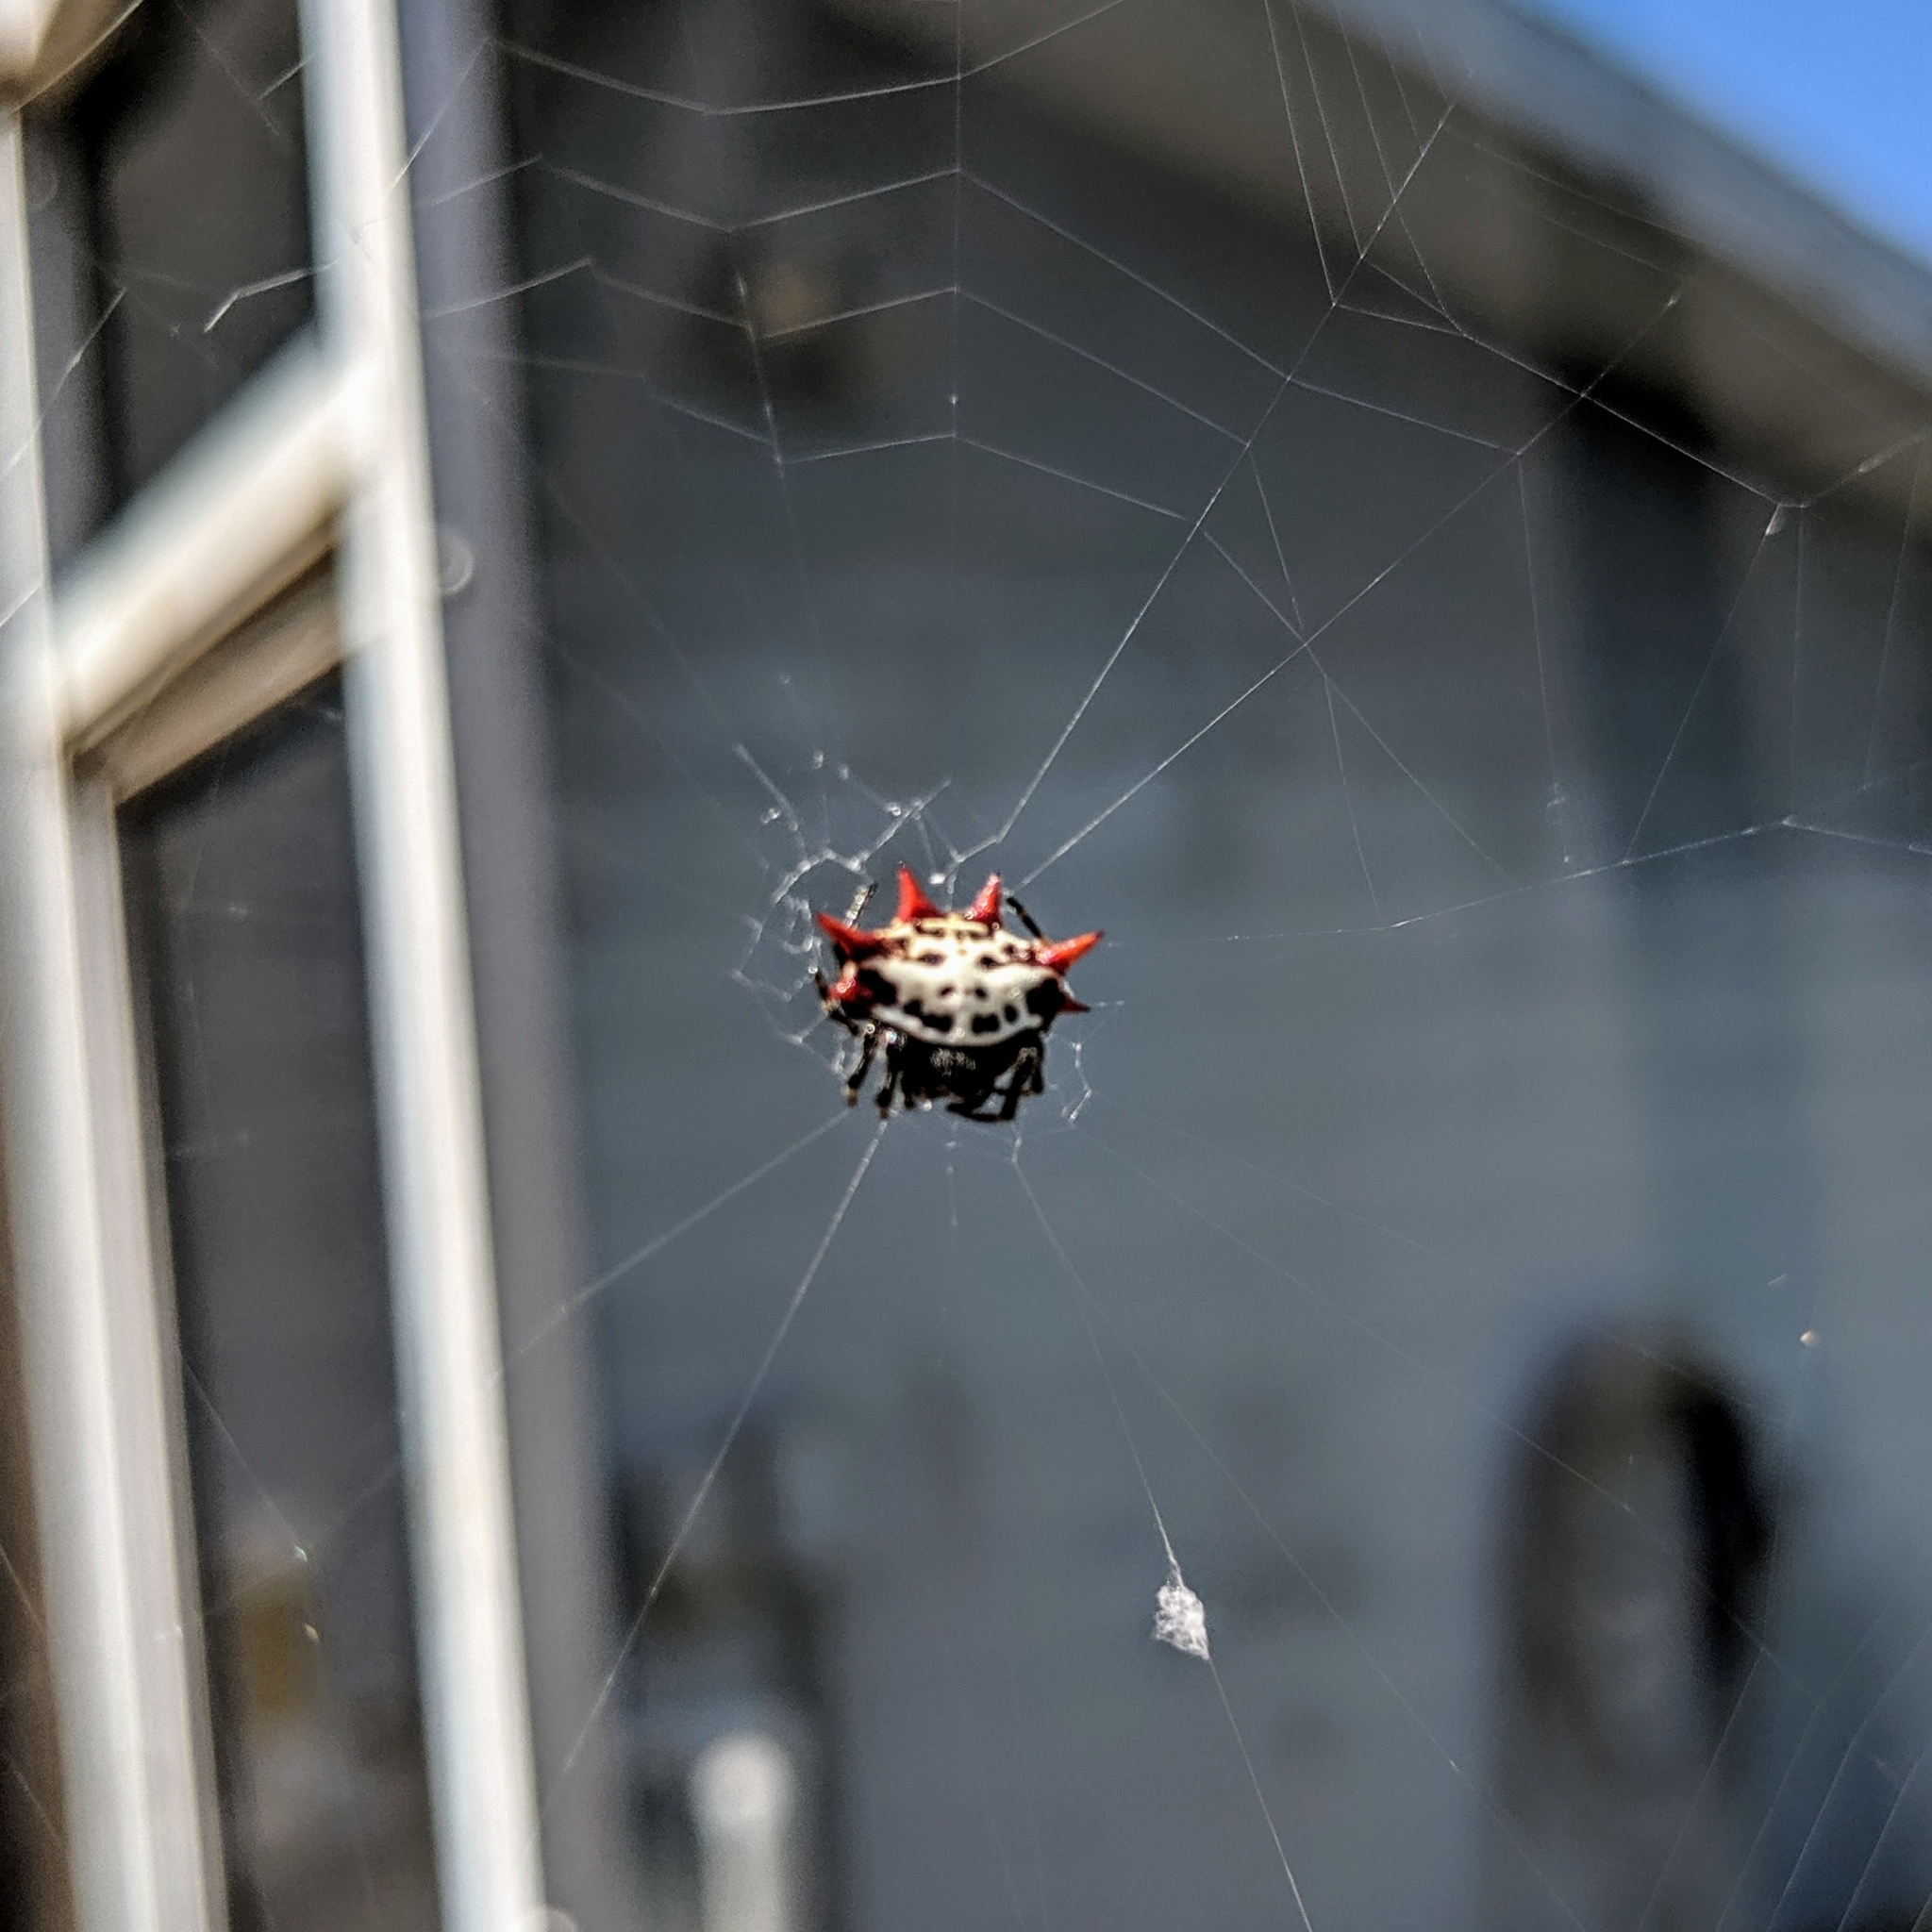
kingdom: Animalia
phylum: Arthropoda
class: Arachnida
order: Araneae
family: Araneidae
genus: Gasteracantha
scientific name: Gasteracantha cancriformis
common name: Orb weavers
